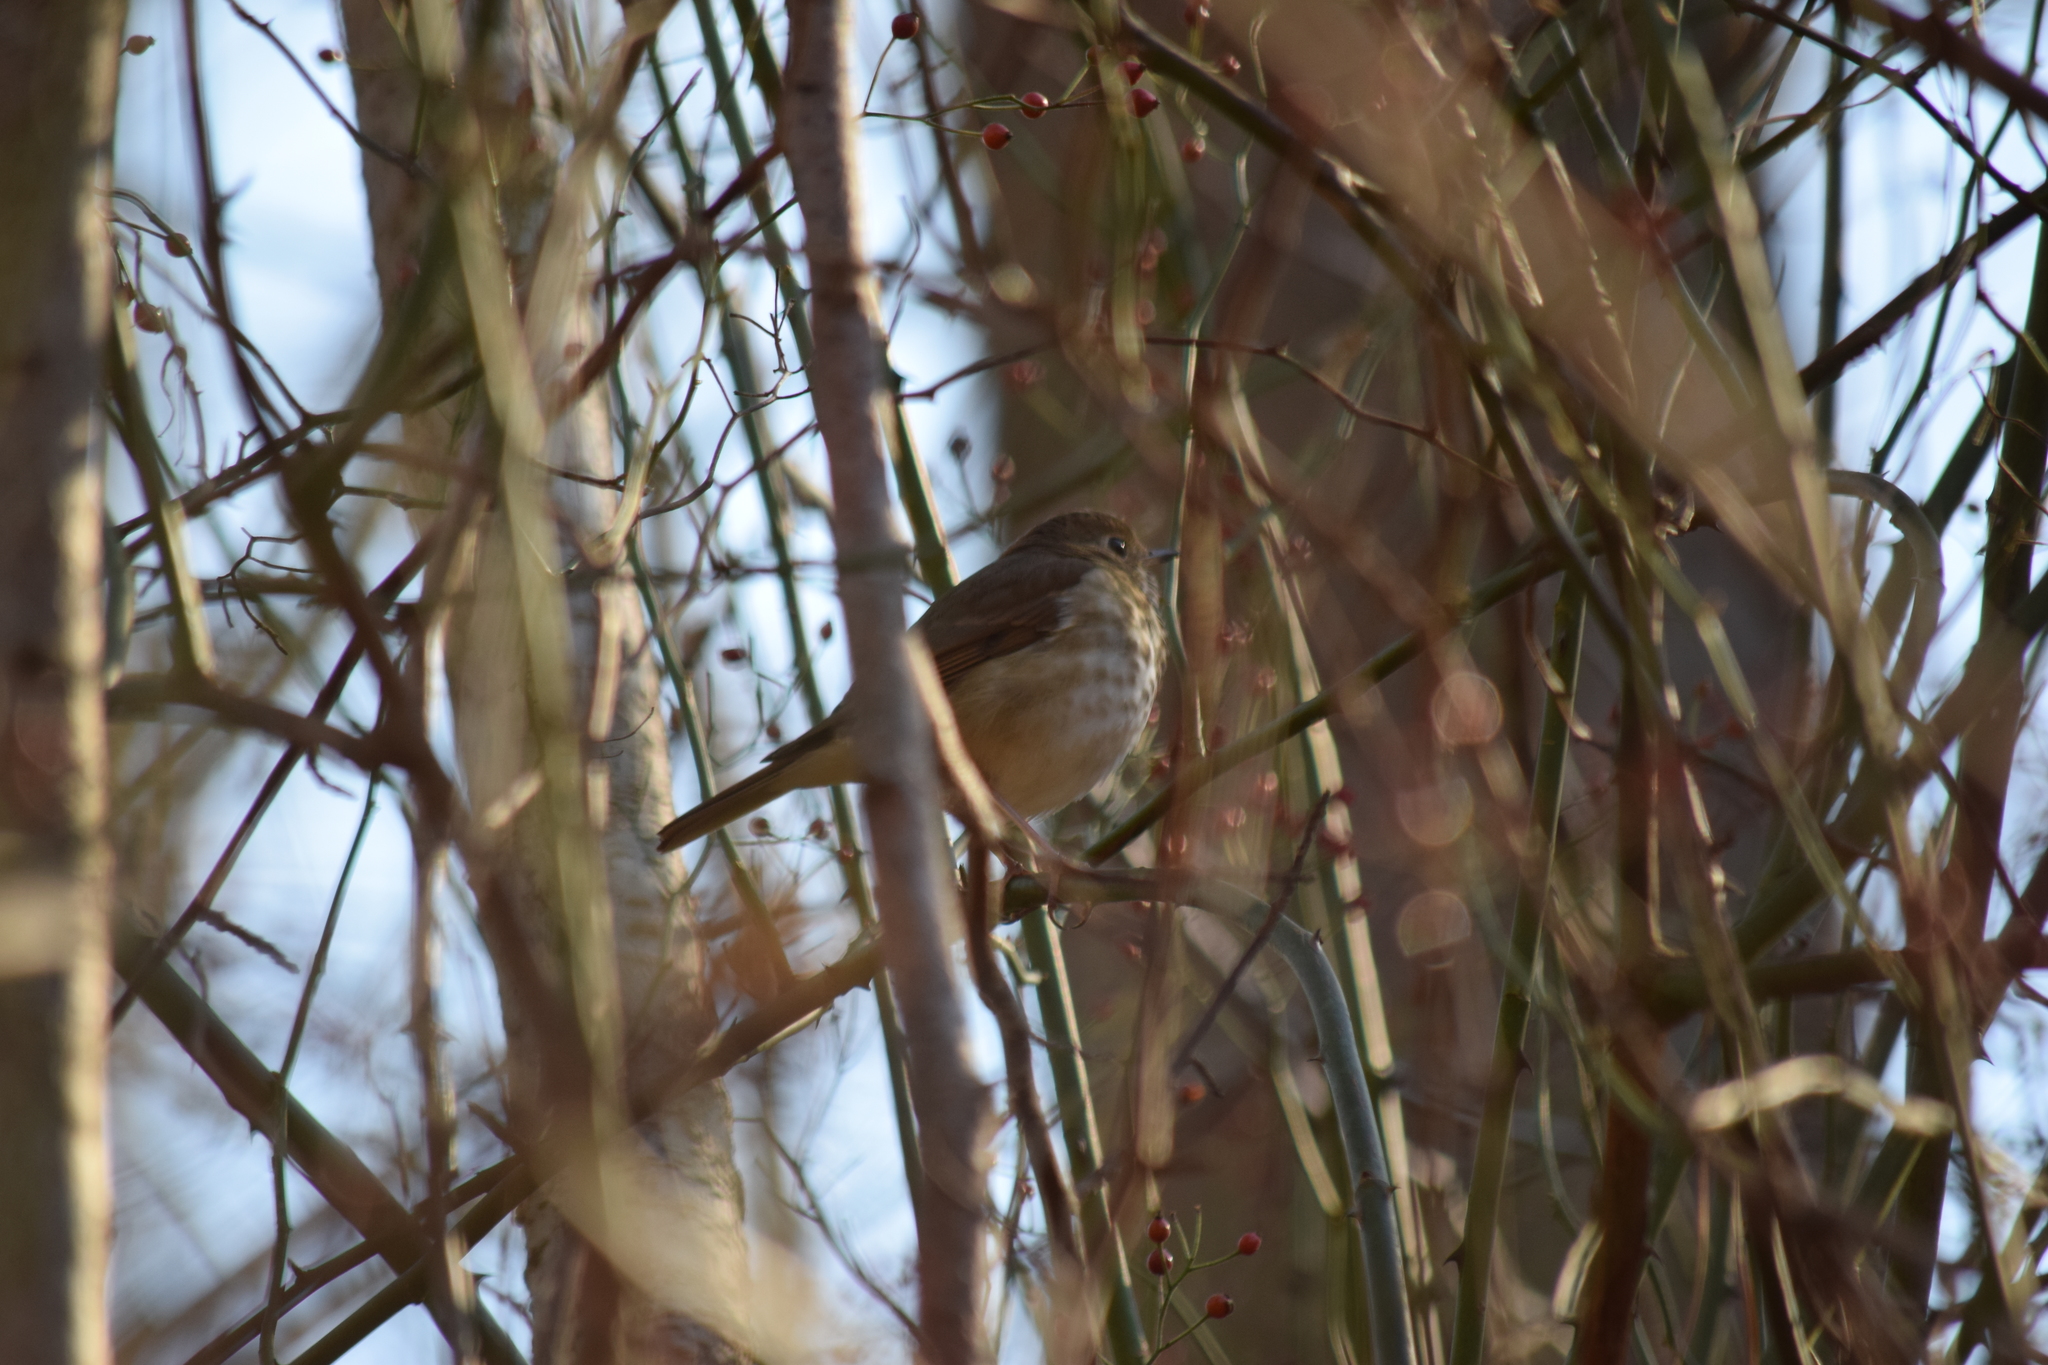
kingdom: Animalia
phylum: Chordata
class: Aves
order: Passeriformes
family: Turdidae
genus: Catharus
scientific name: Catharus guttatus
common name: Hermit thrush
